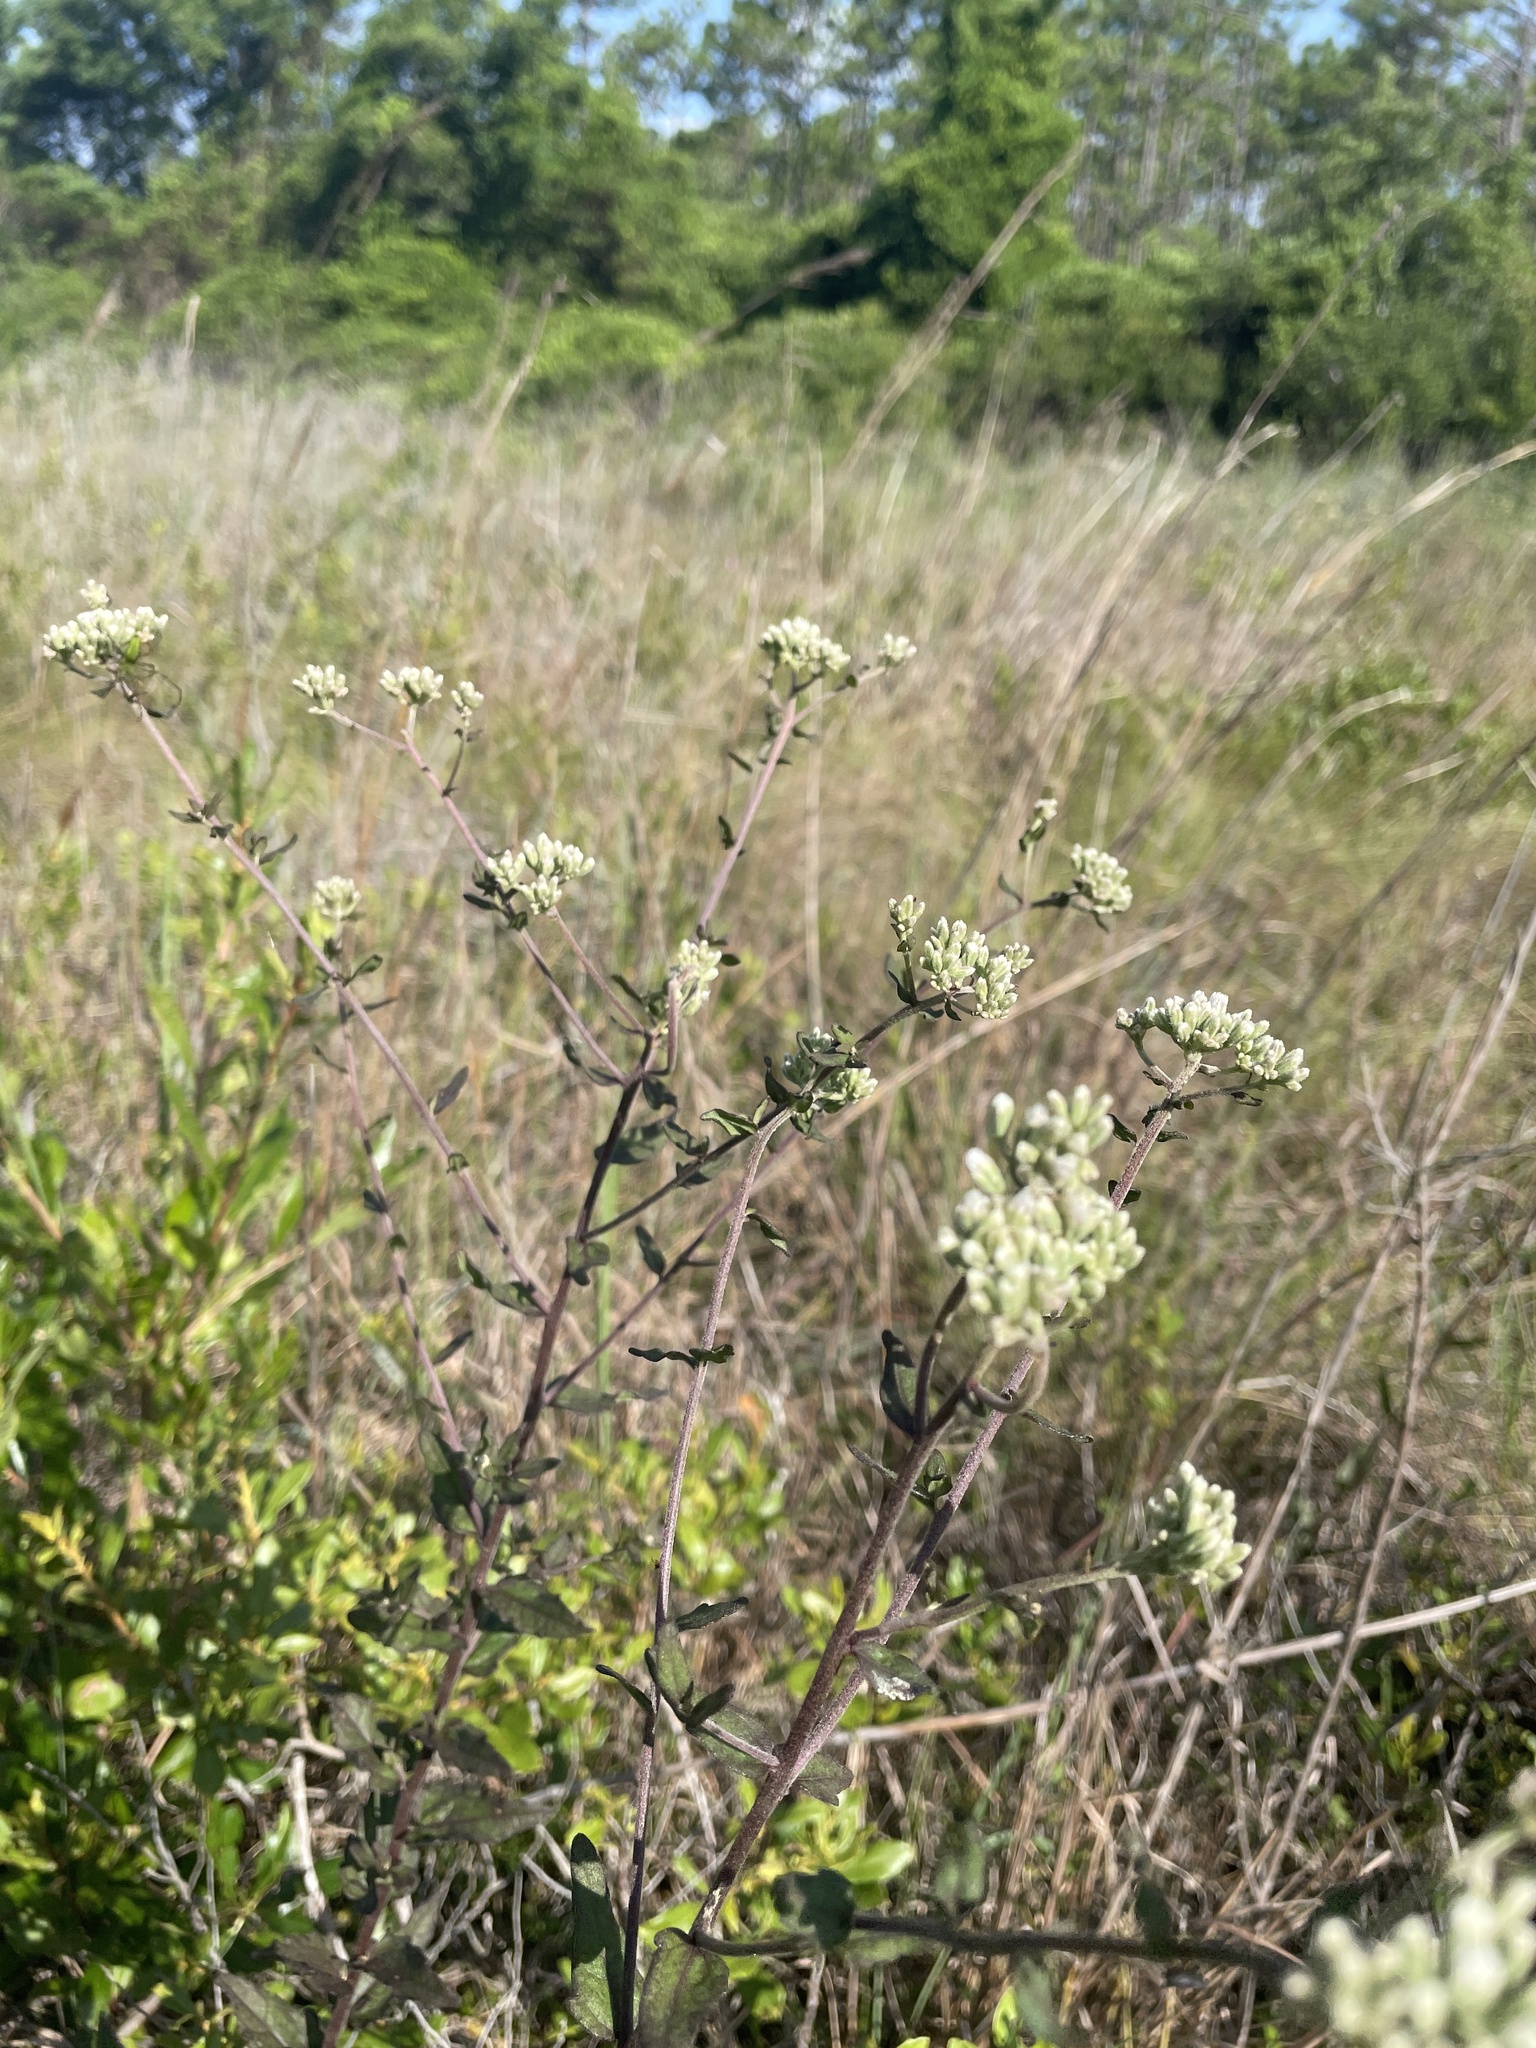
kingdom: Plantae
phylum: Tracheophyta
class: Magnoliopsida
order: Asterales
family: Asteraceae
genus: Eupatorium
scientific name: Eupatorium pilosum
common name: Rough boneset
